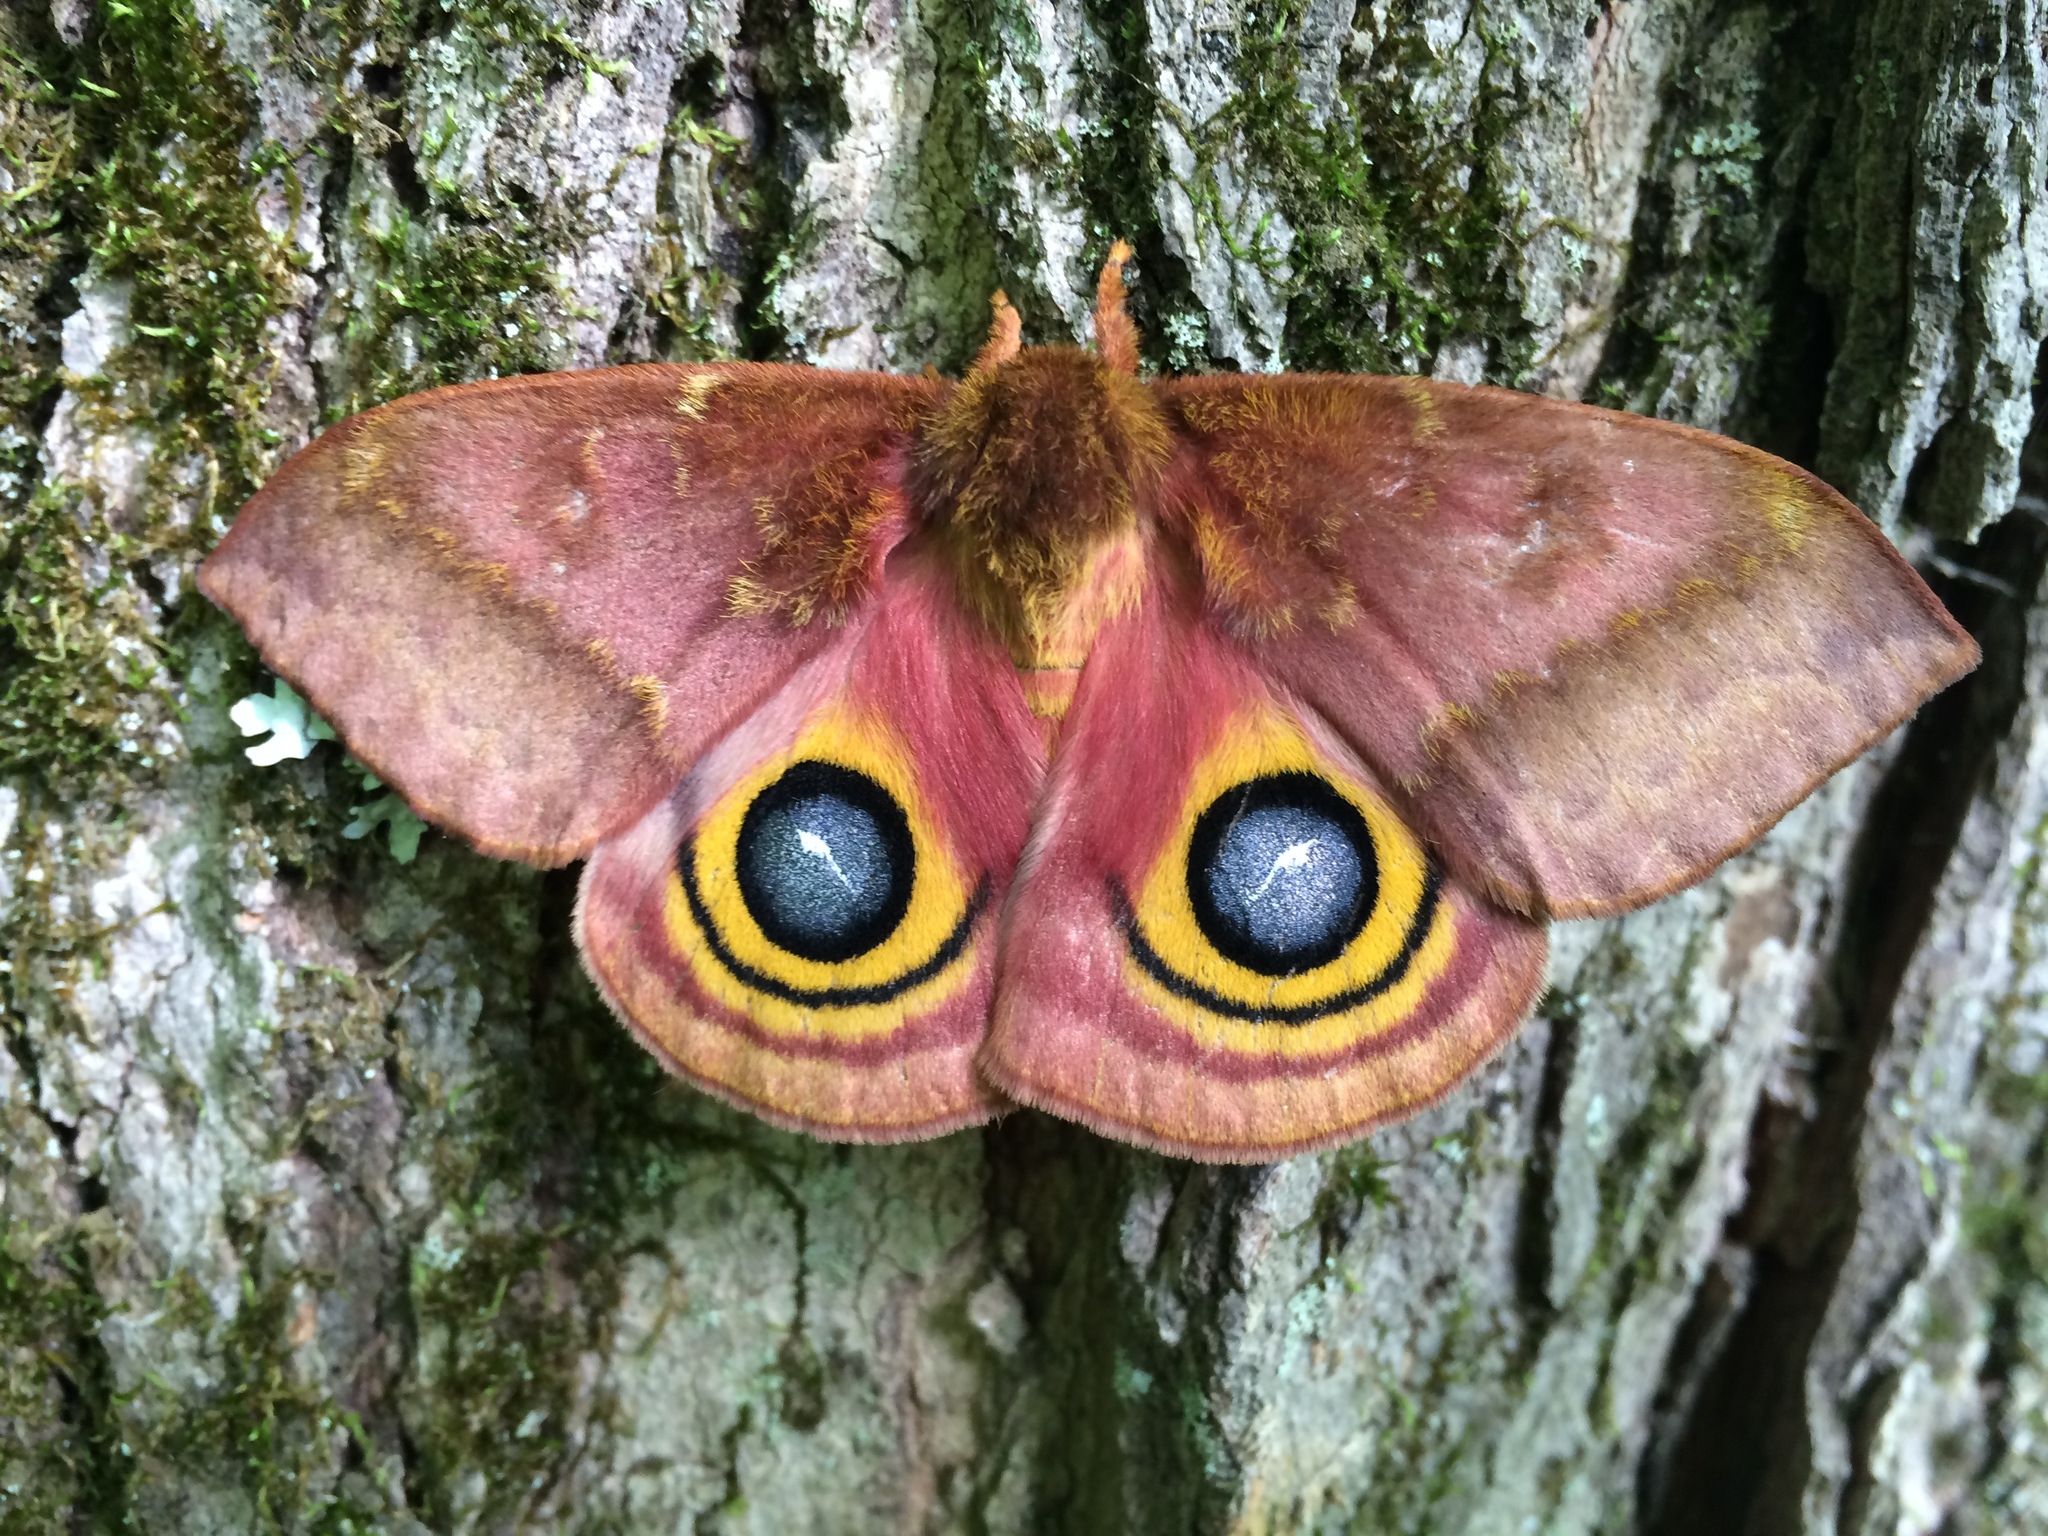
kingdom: Animalia
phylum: Arthropoda
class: Insecta
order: Lepidoptera
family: Saturniidae
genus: Automeris
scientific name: Automeris io
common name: Io moth
